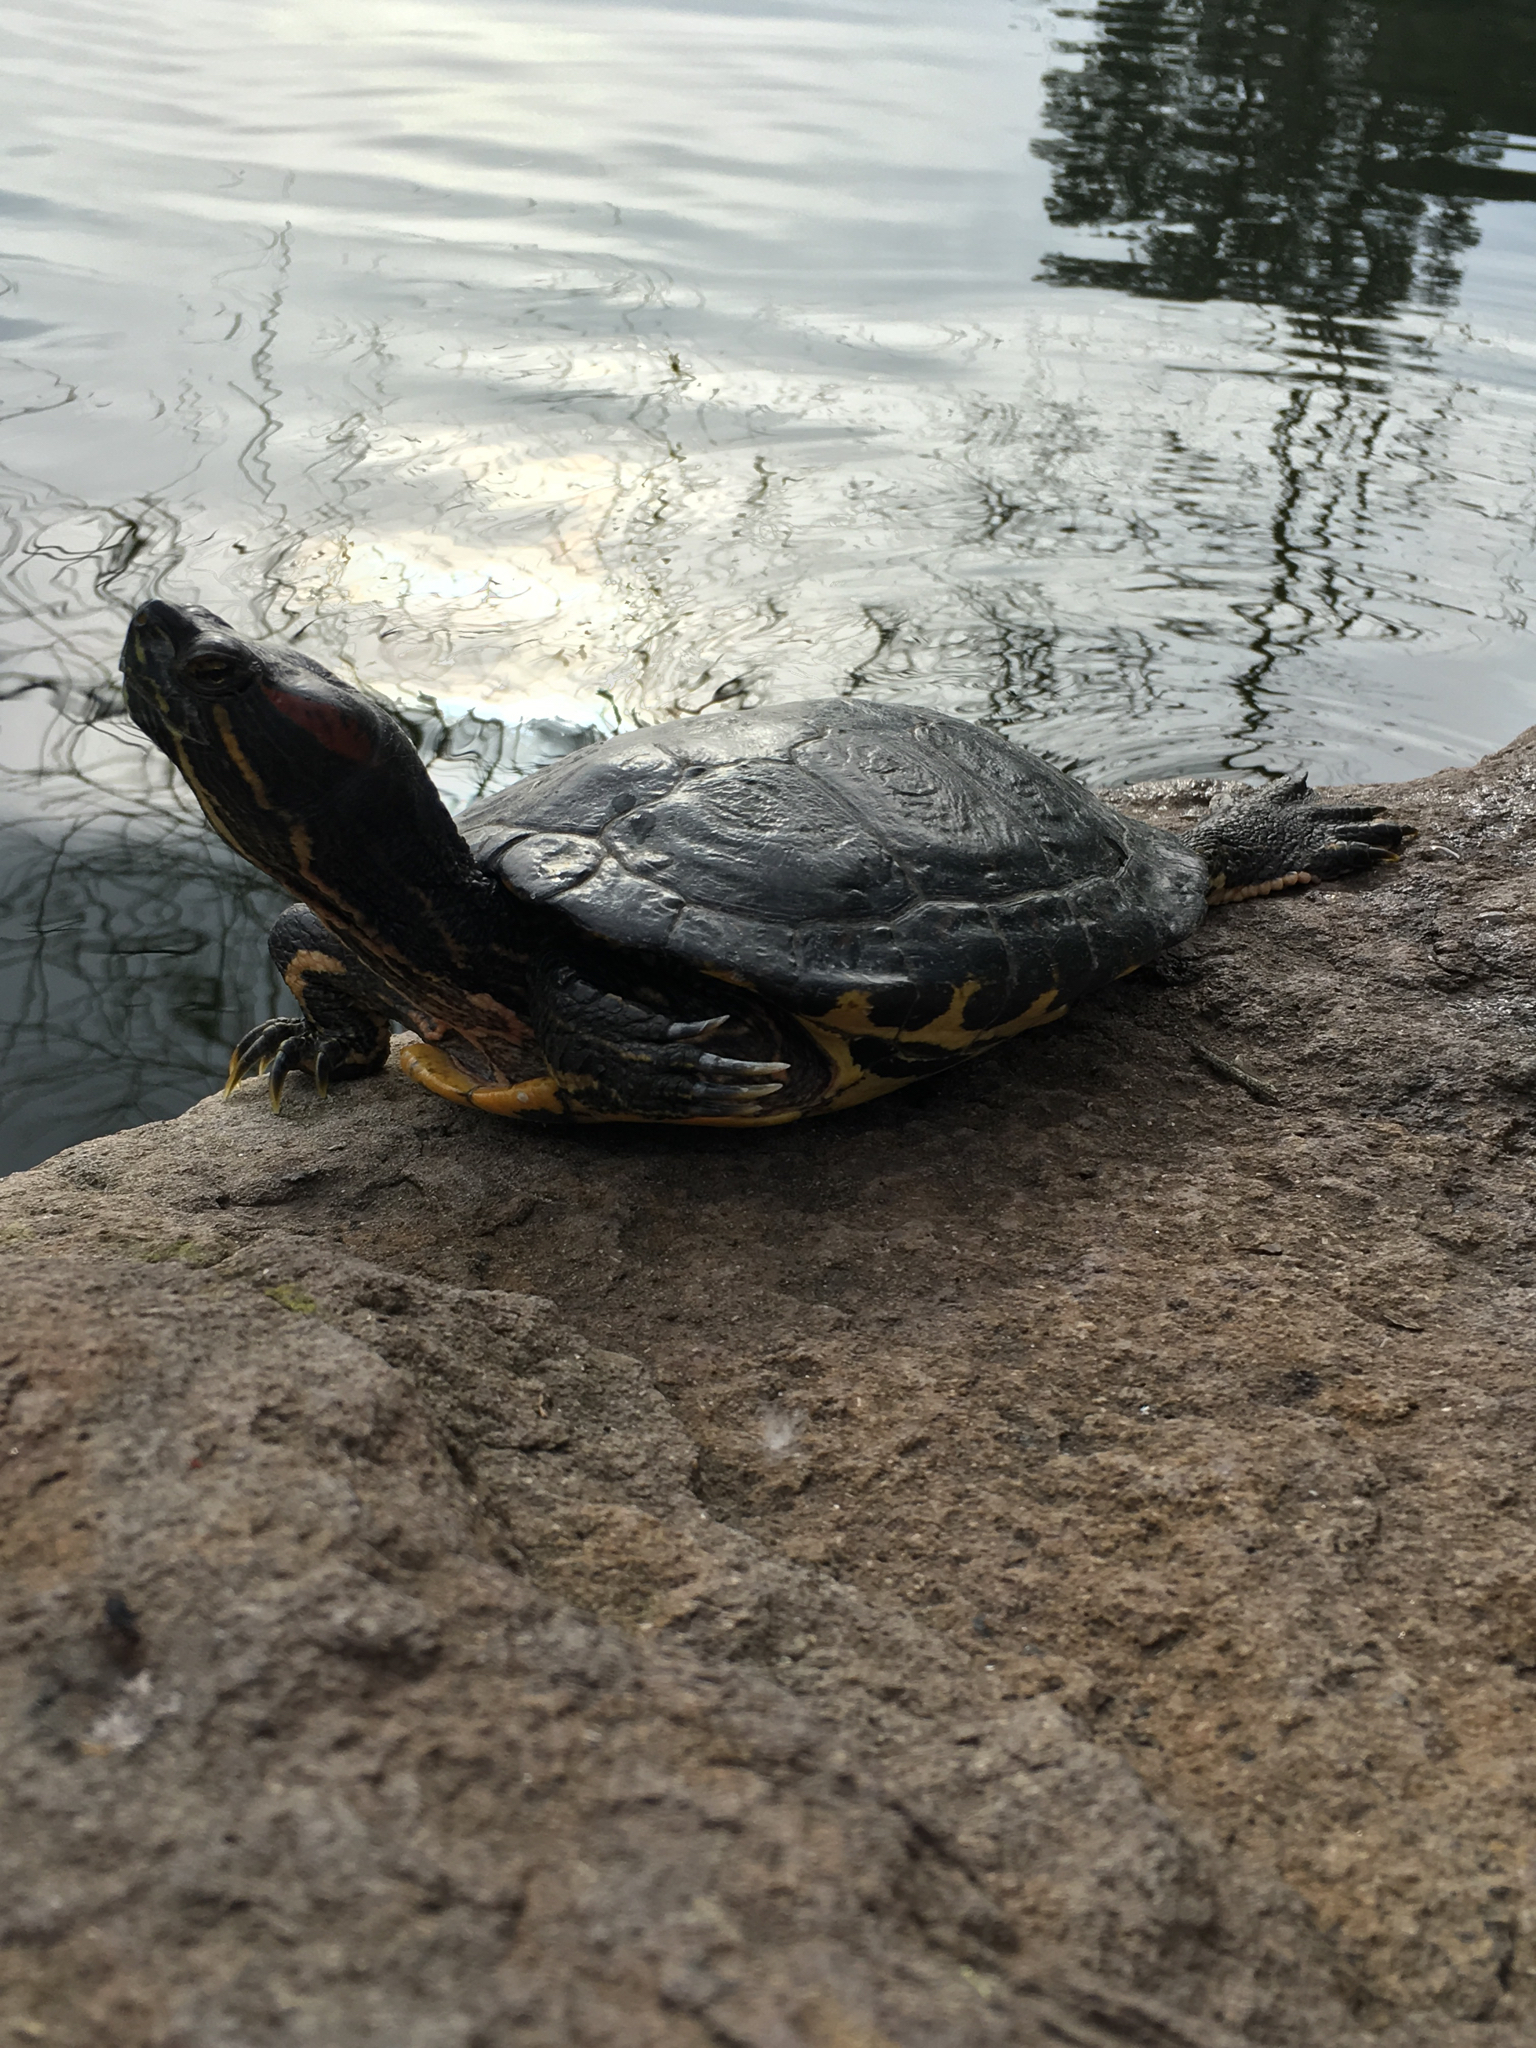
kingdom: Animalia
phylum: Chordata
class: Testudines
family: Emydidae
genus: Trachemys
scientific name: Trachemys scripta
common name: Slider
